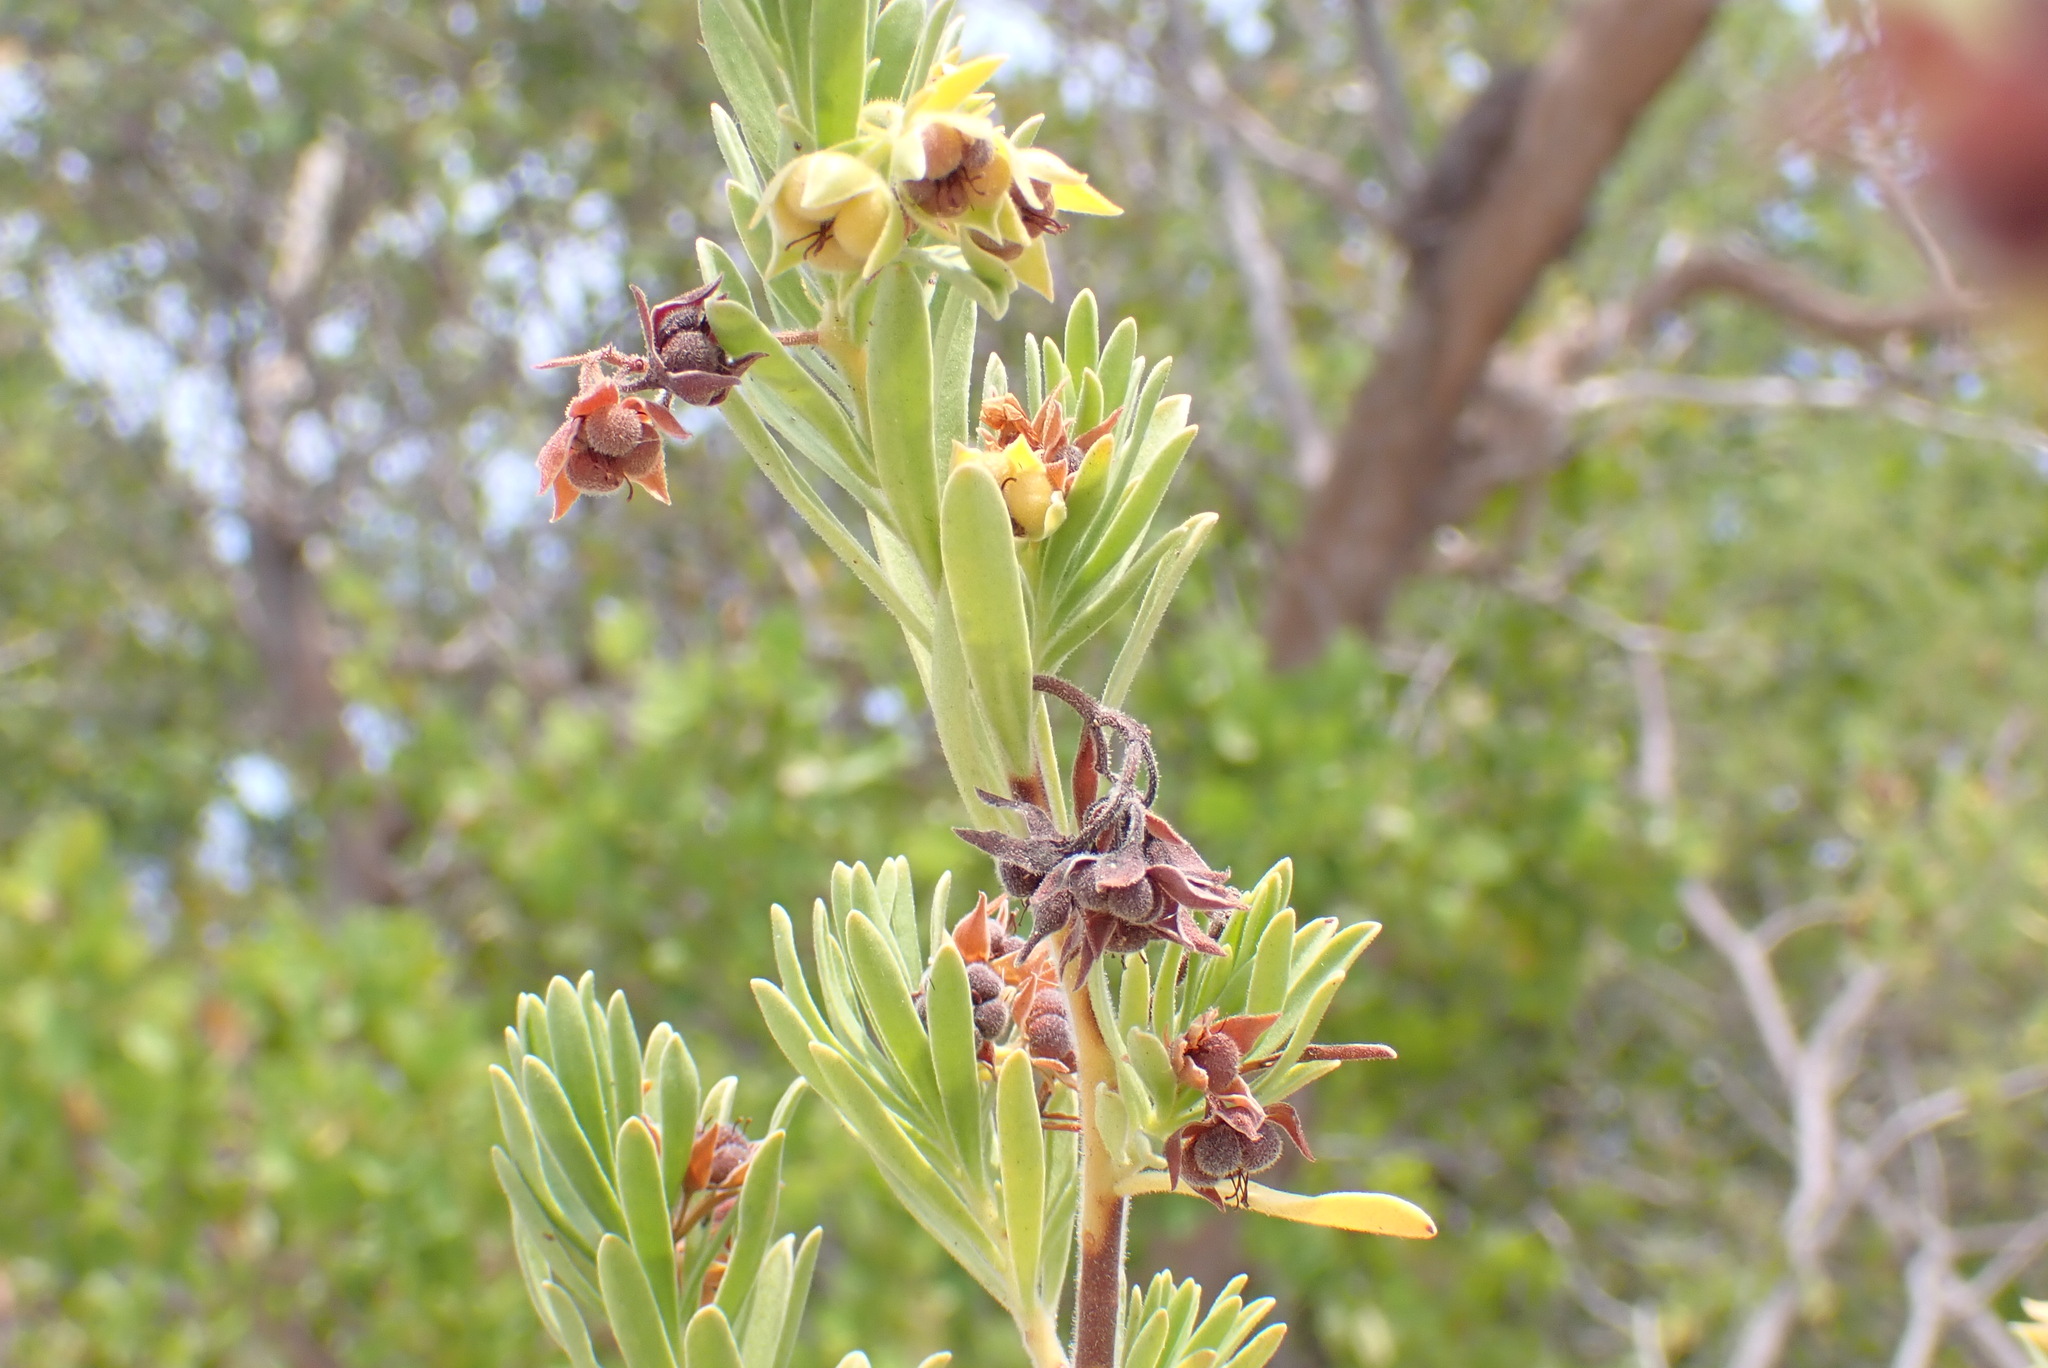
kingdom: Plantae
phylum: Tracheophyta
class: Magnoliopsida
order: Fabales
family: Surianaceae
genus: Suriana
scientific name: Suriana maritima
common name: Bay-cedar
